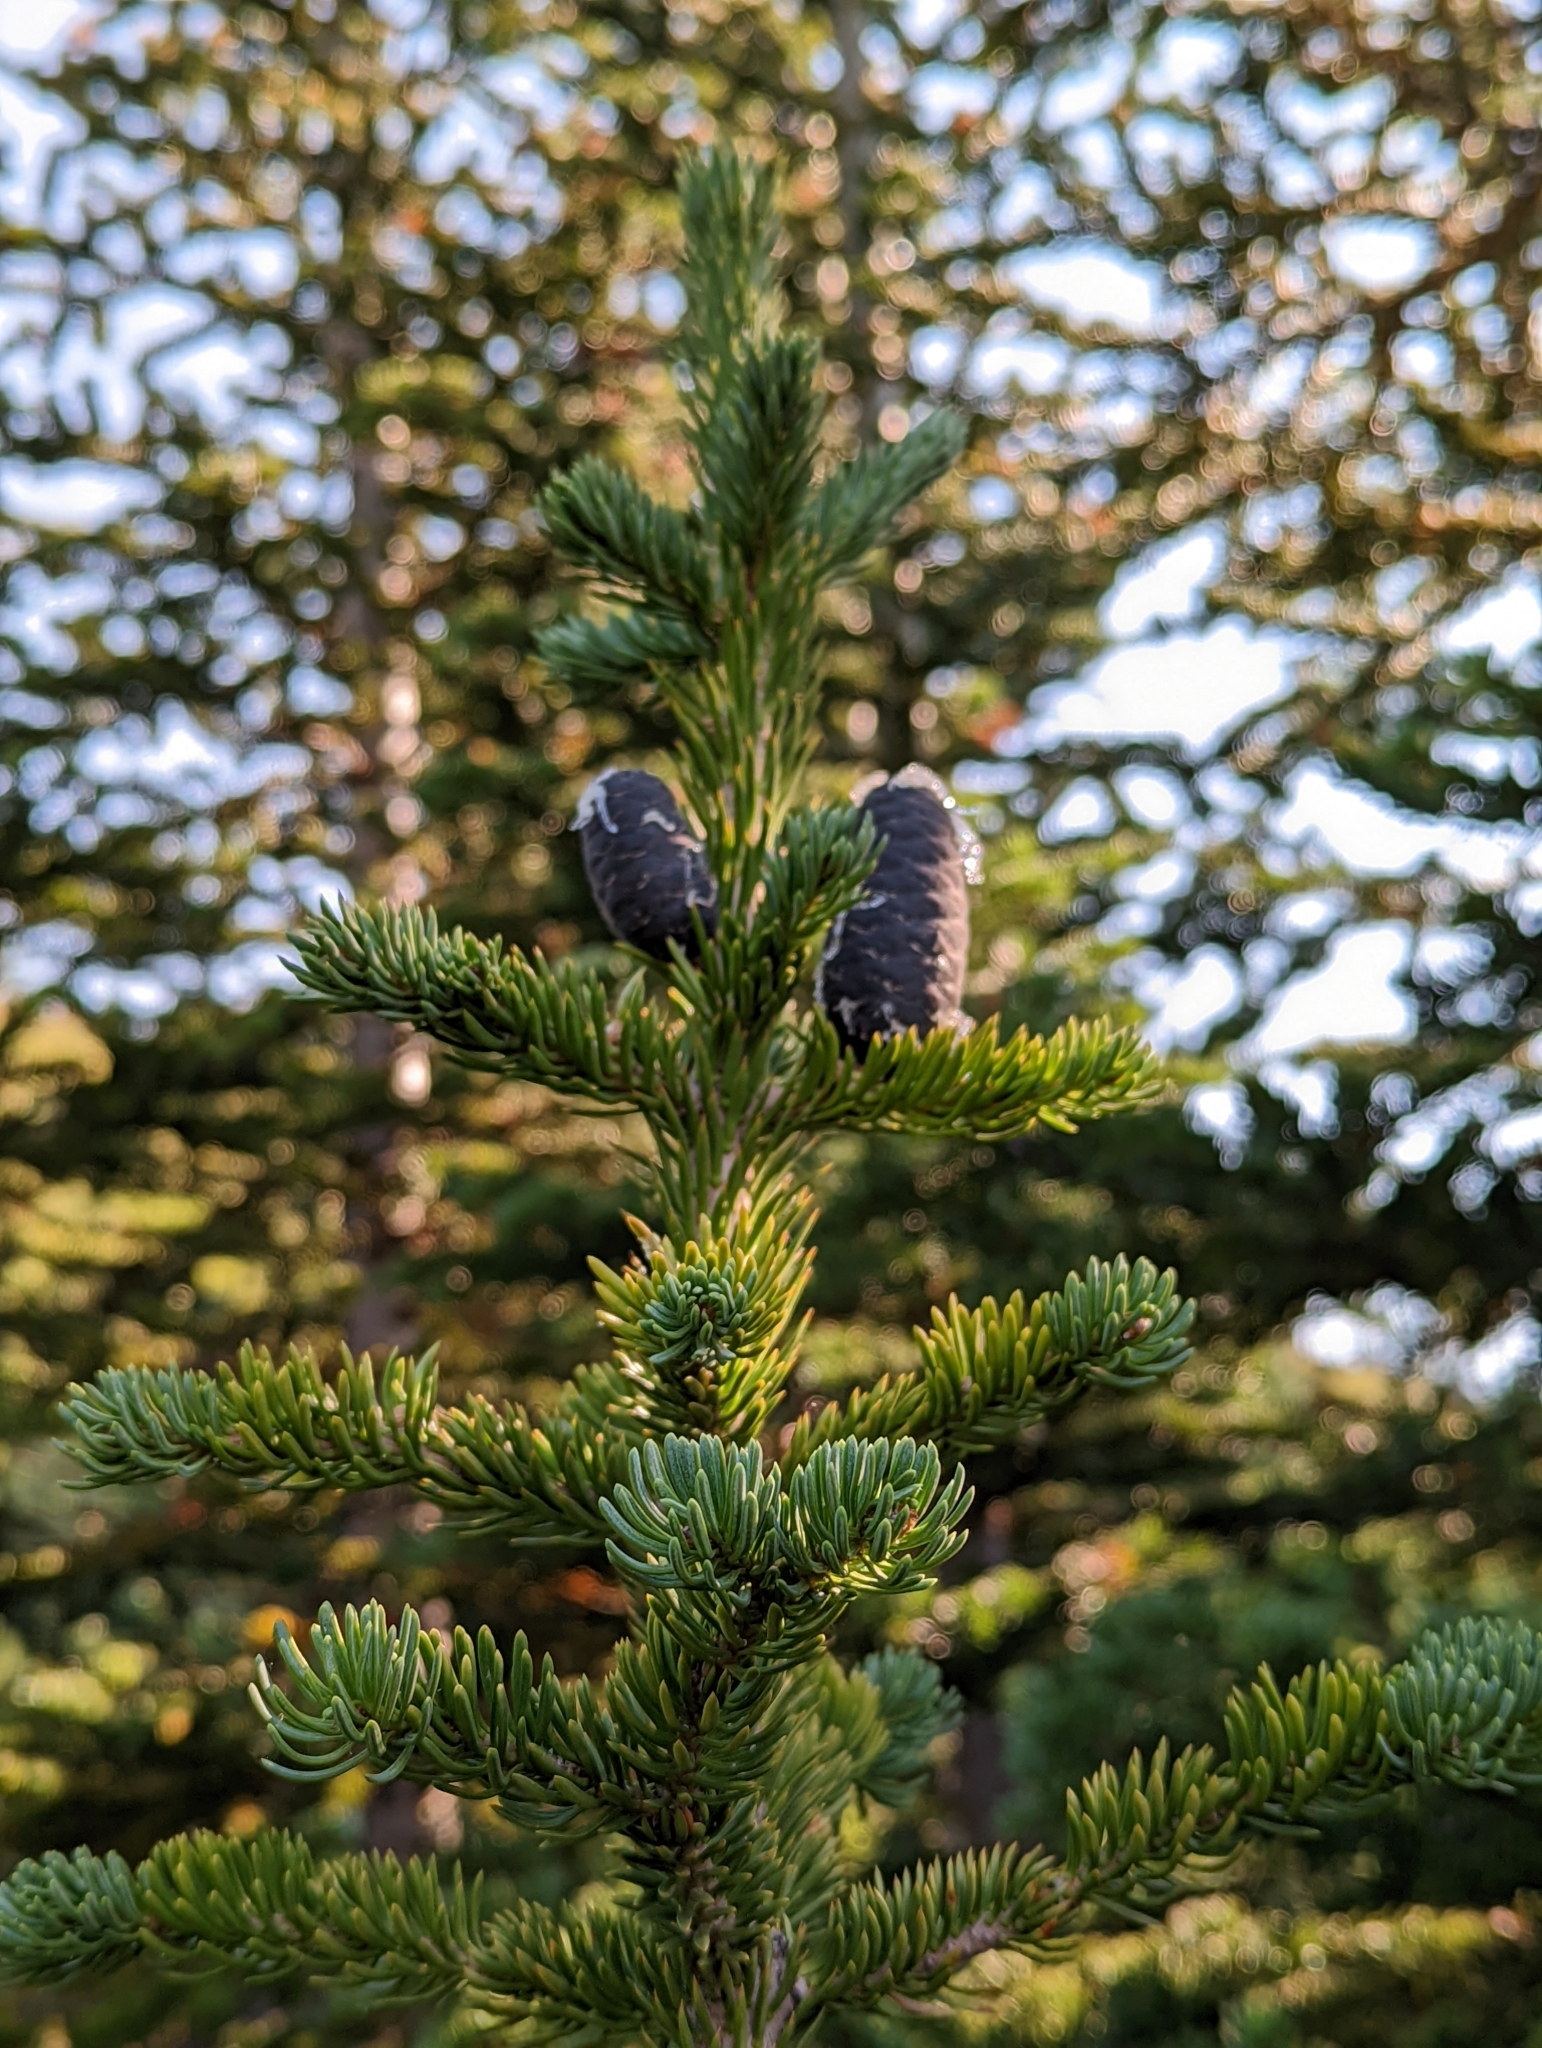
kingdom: Plantae
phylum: Tracheophyta
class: Pinopsida
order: Pinales
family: Pinaceae
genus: Abies
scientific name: Abies lasiocarpa
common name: Subalpine fir
